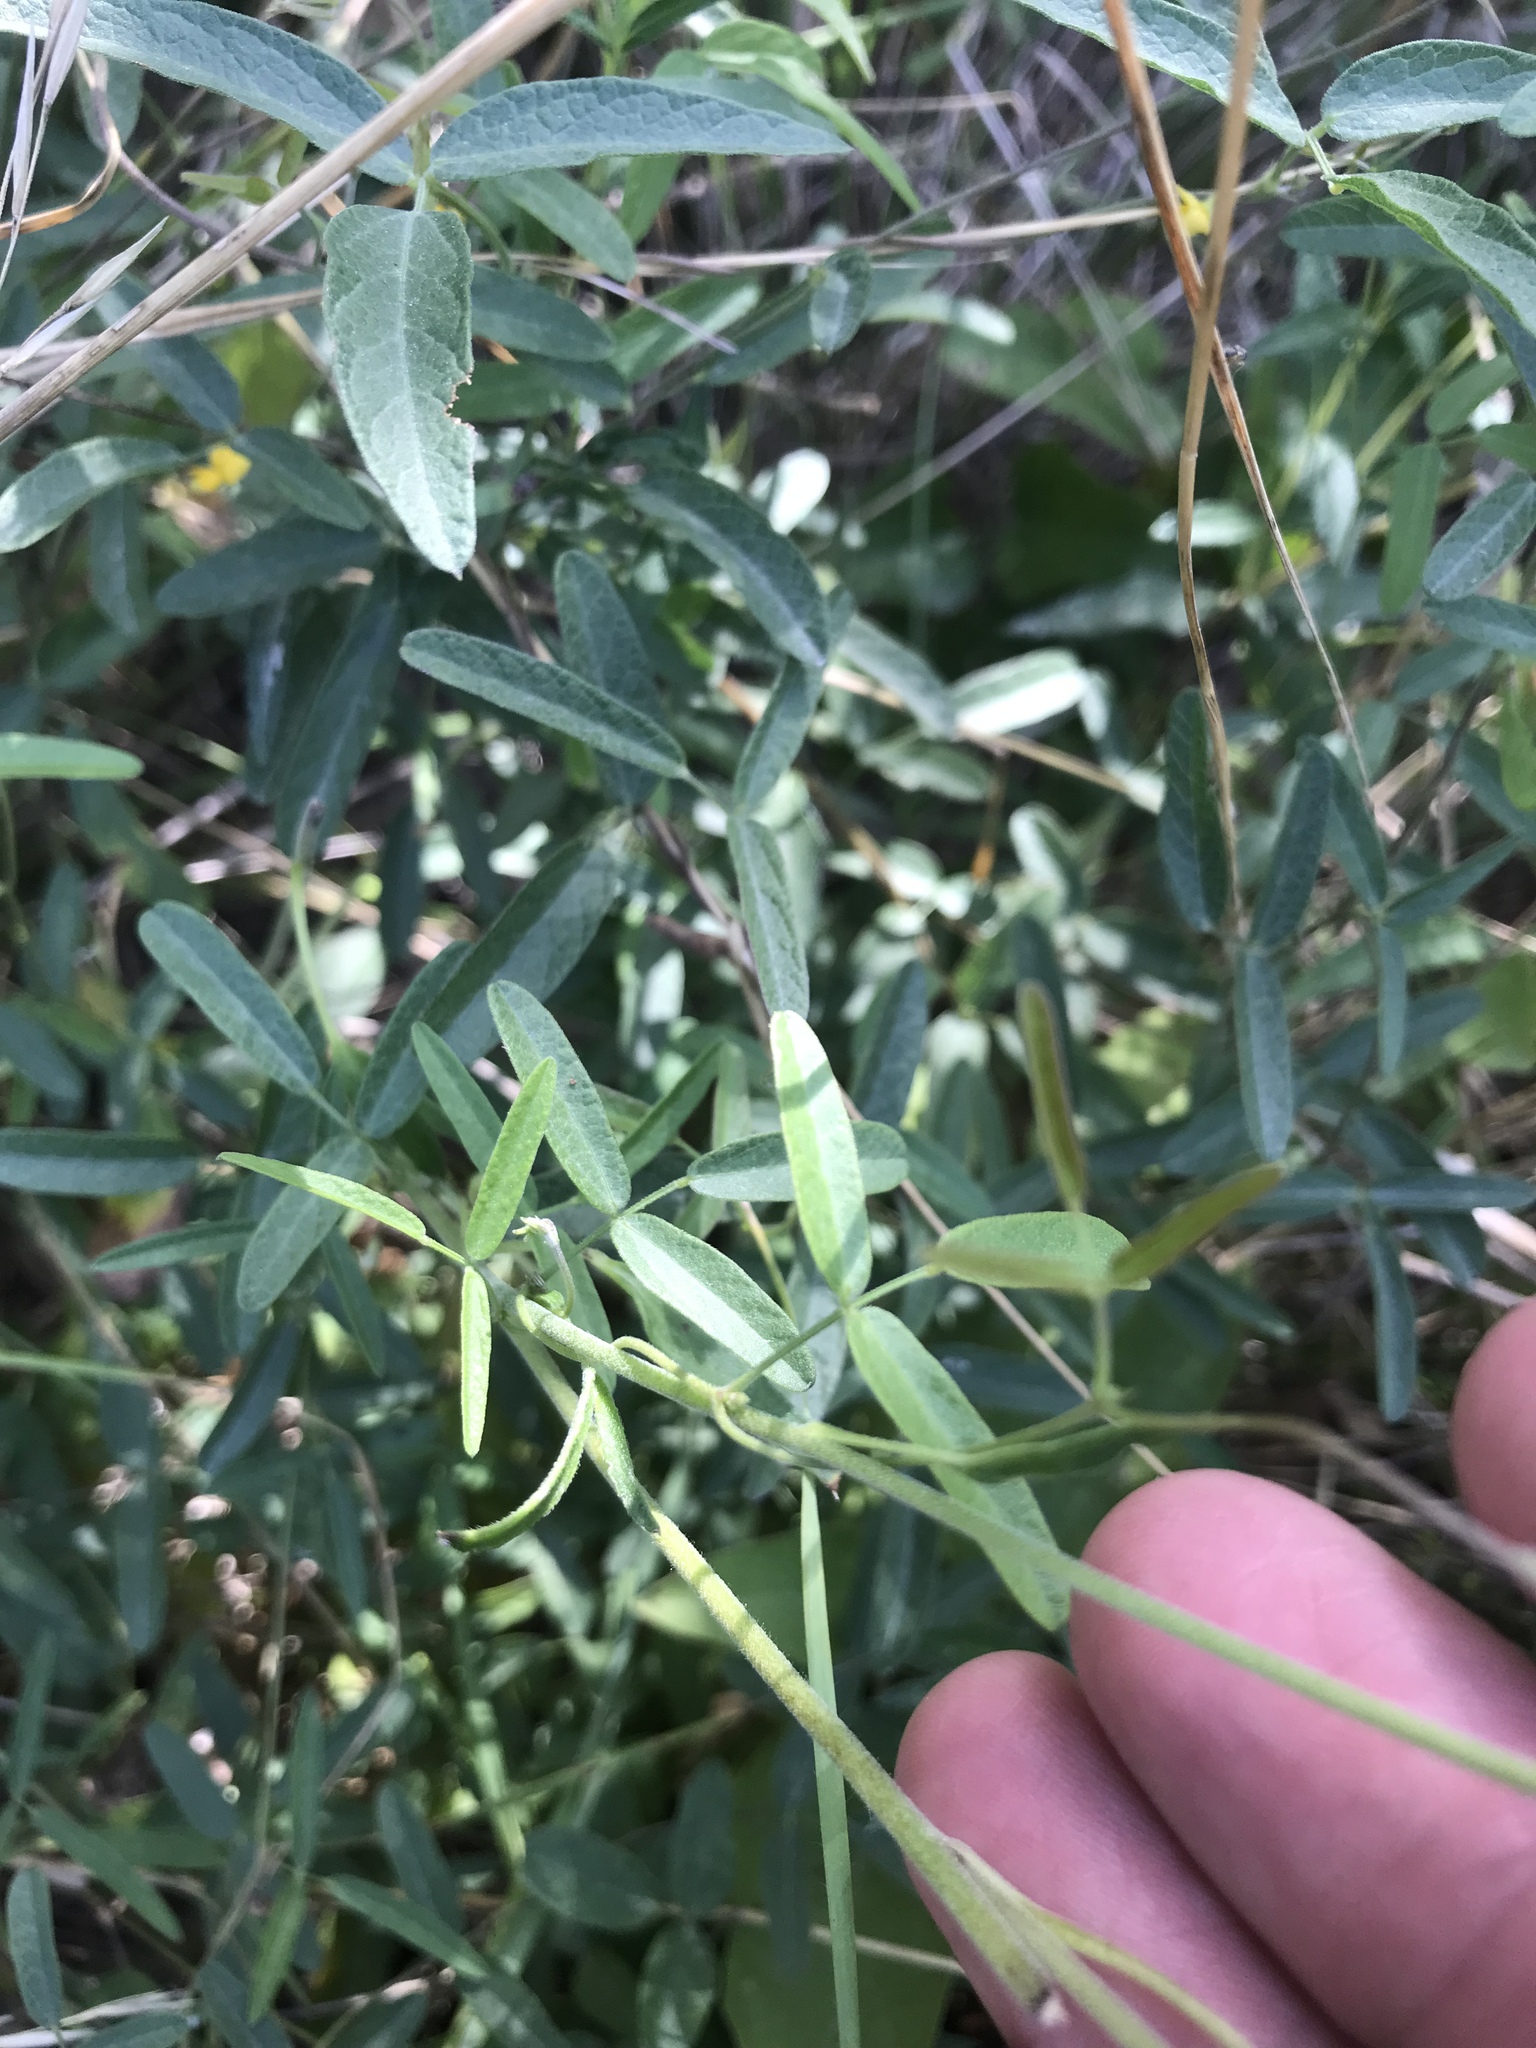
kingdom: Plantae
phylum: Tracheophyta
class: Magnoliopsida
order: Ranunculales
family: Ranunculaceae
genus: Delphinium
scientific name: Delphinium carolinianum
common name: Carolina larkspur
